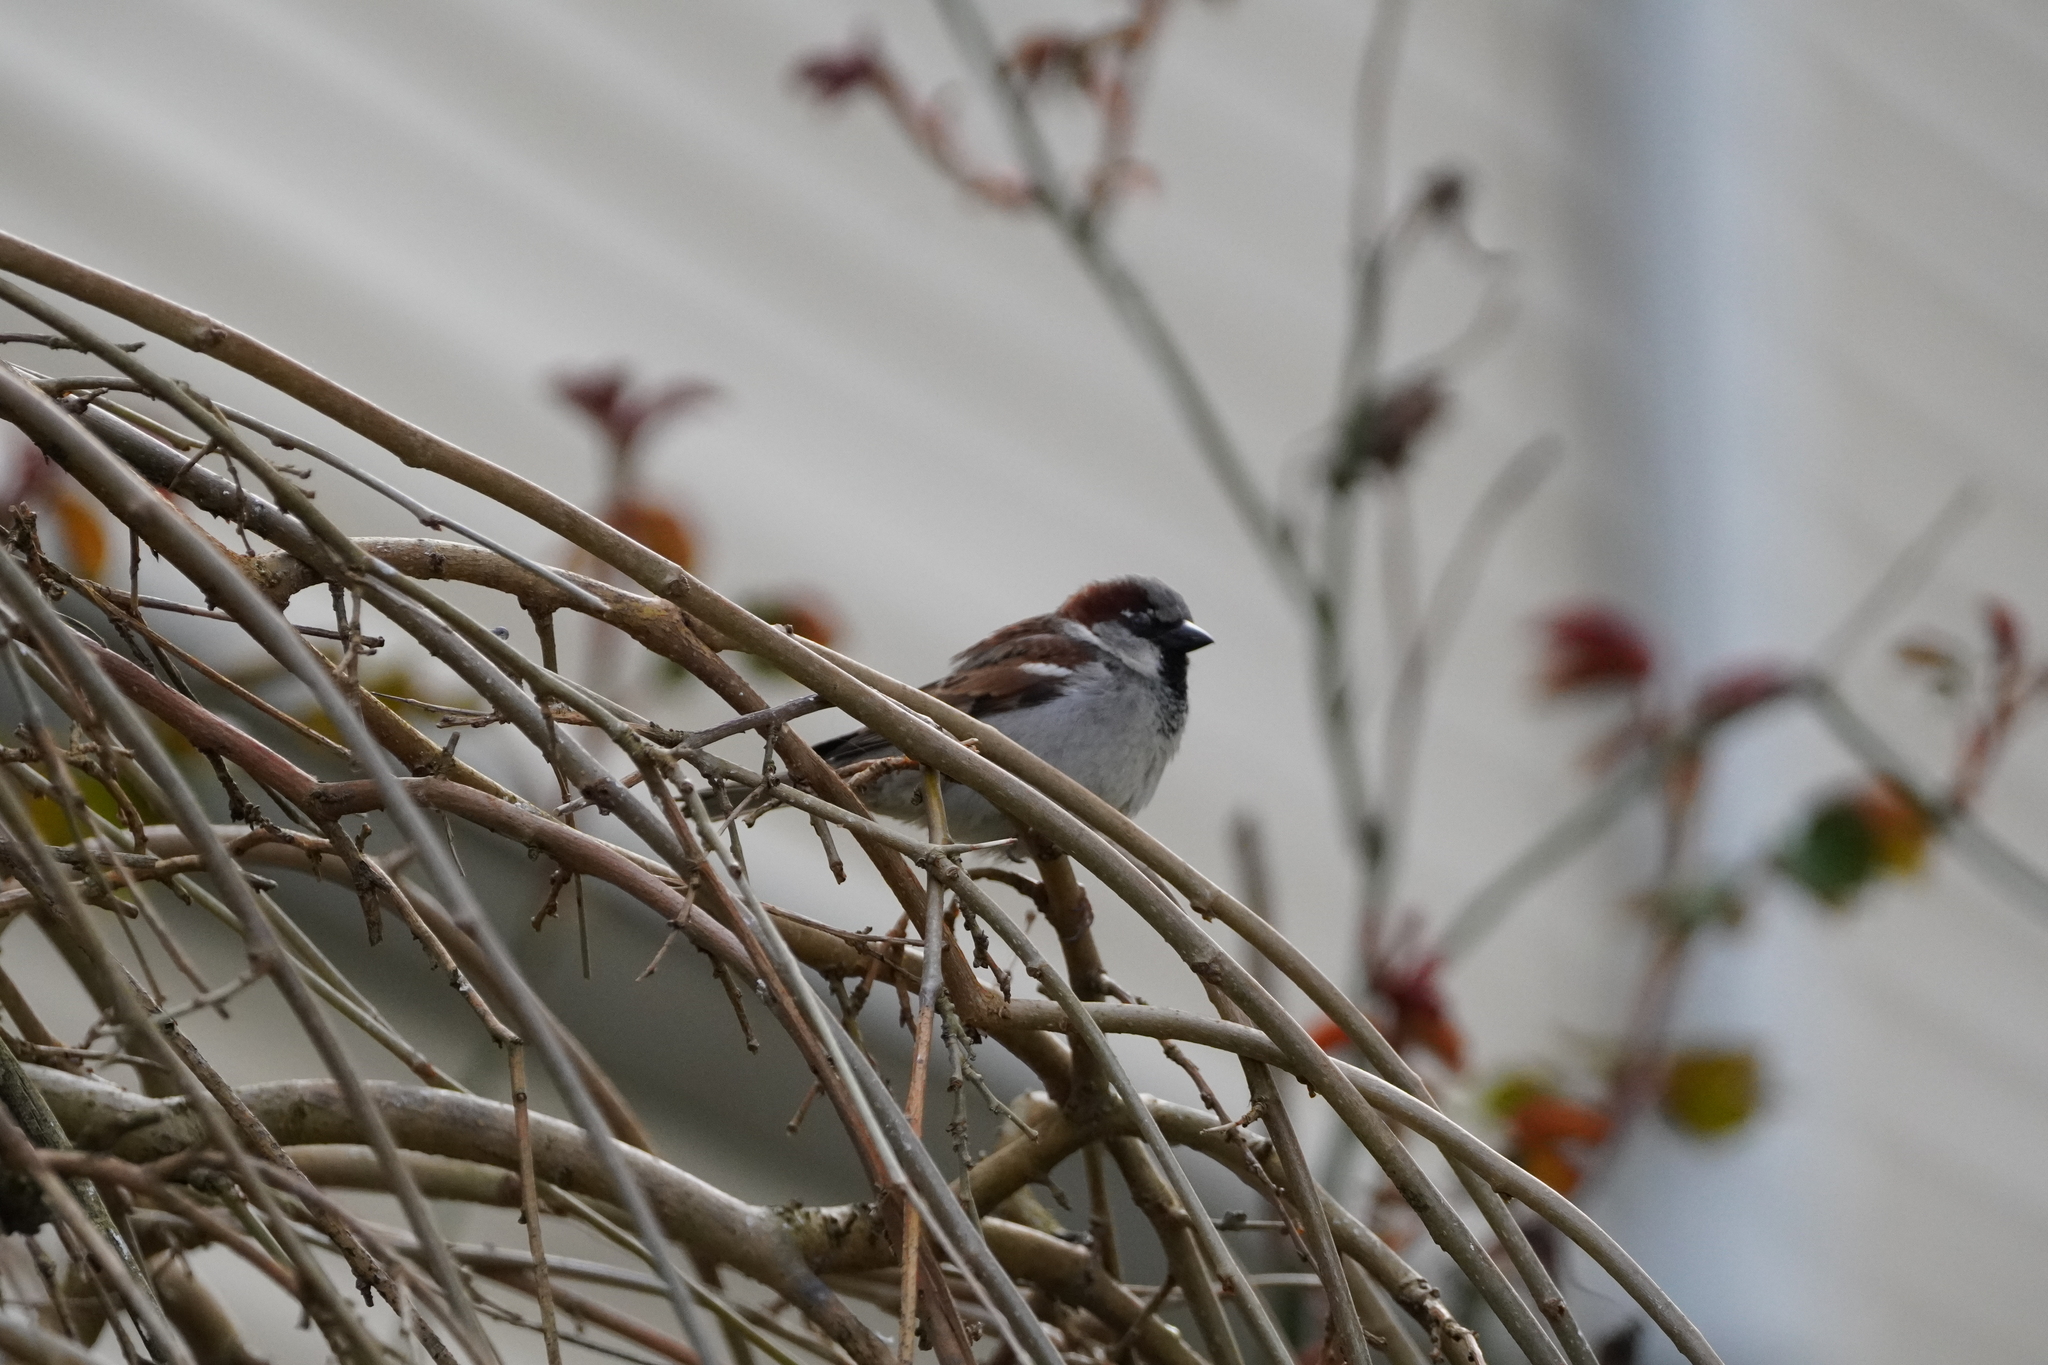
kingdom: Animalia
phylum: Chordata
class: Aves
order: Passeriformes
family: Passeridae
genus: Passer
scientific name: Passer domesticus
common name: House sparrow
